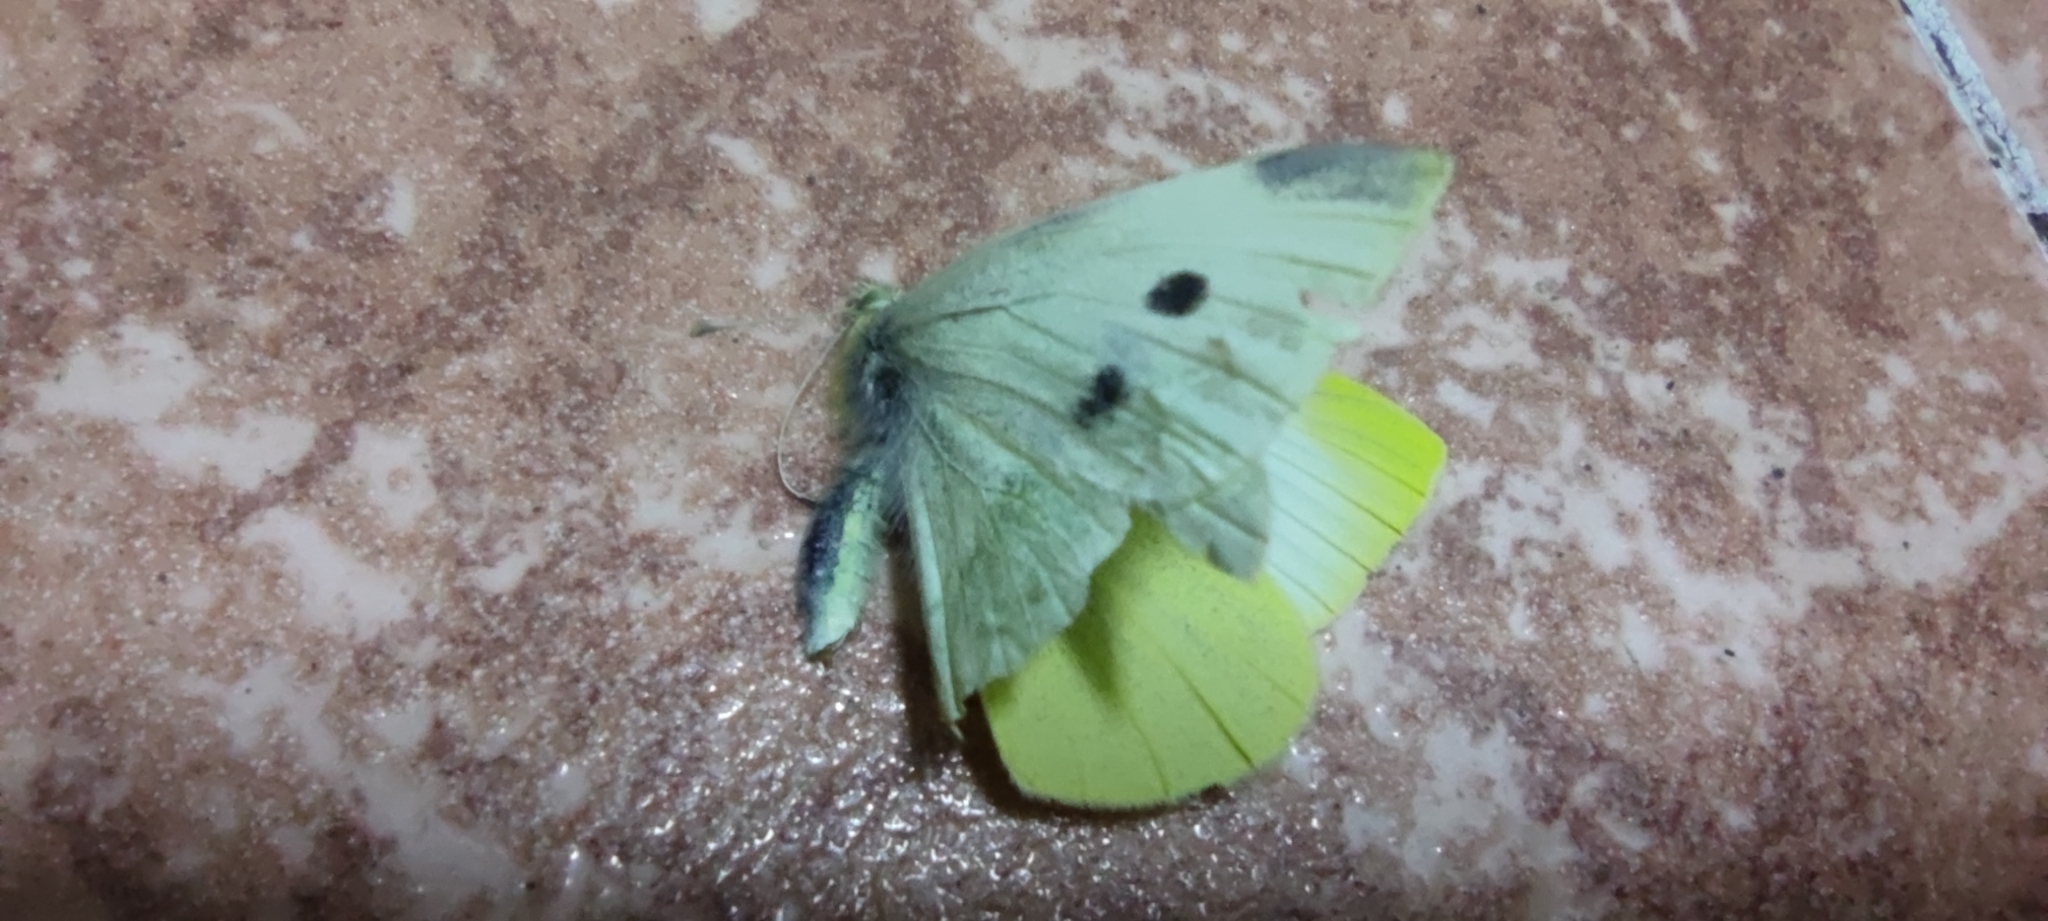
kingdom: Animalia
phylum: Arthropoda
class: Insecta
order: Lepidoptera
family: Pieridae
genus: Pieris
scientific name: Pieris rapae
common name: Small white
